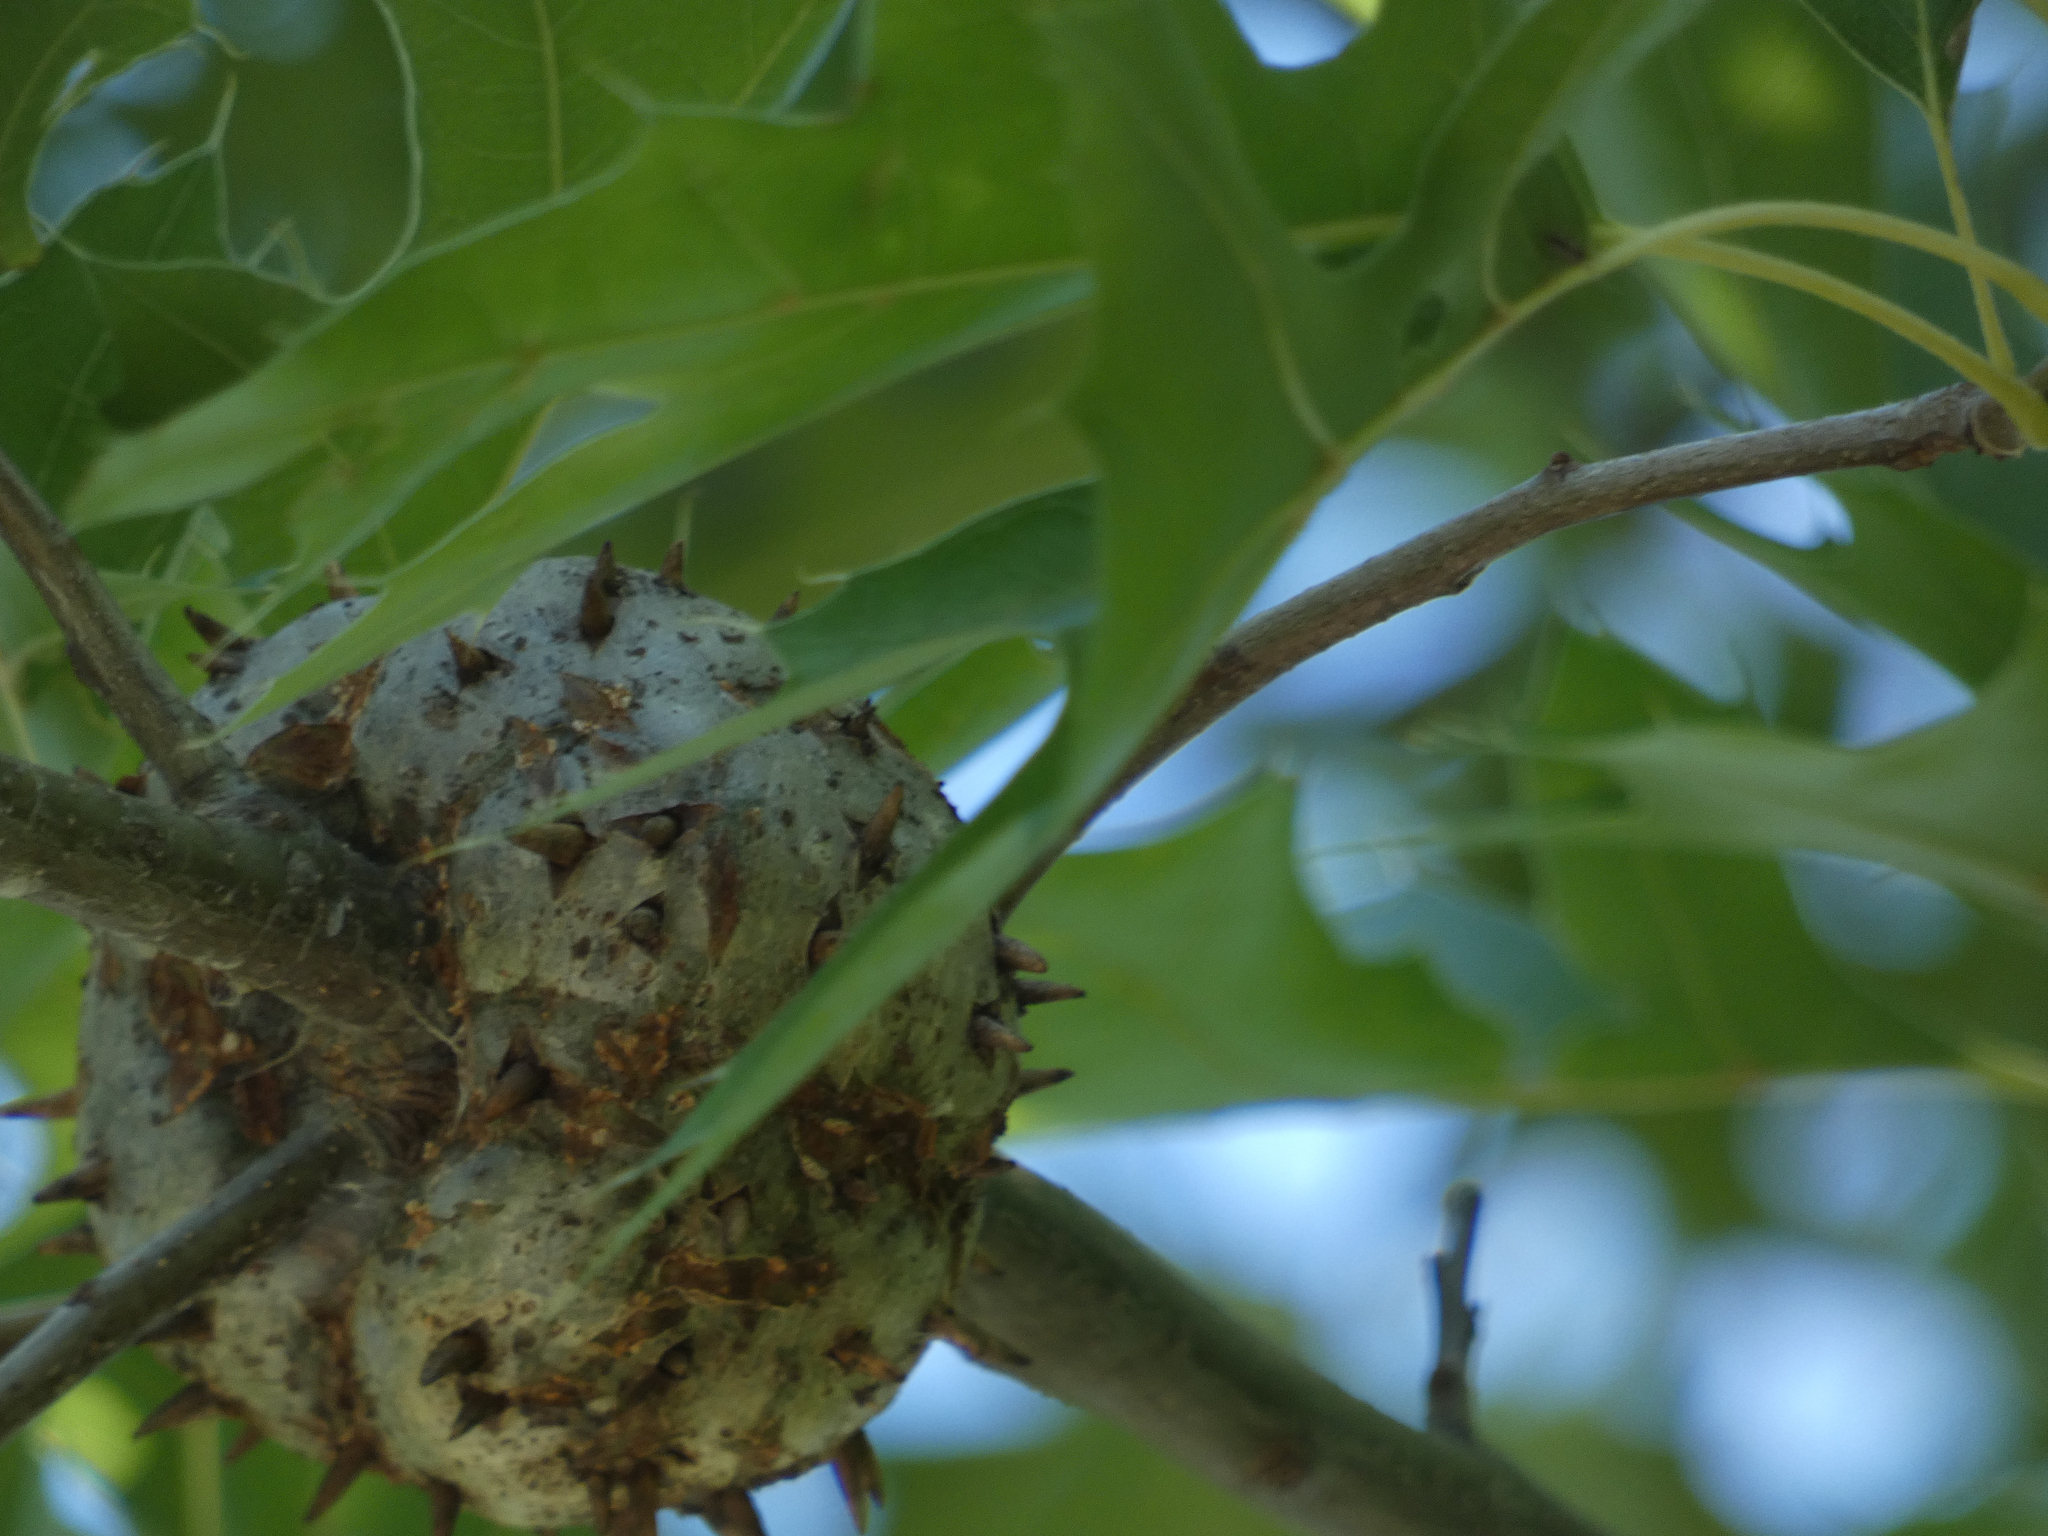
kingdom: Animalia
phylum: Arthropoda
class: Insecta
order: Hymenoptera
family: Cynipidae
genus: Callirhytis
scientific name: Callirhytis
